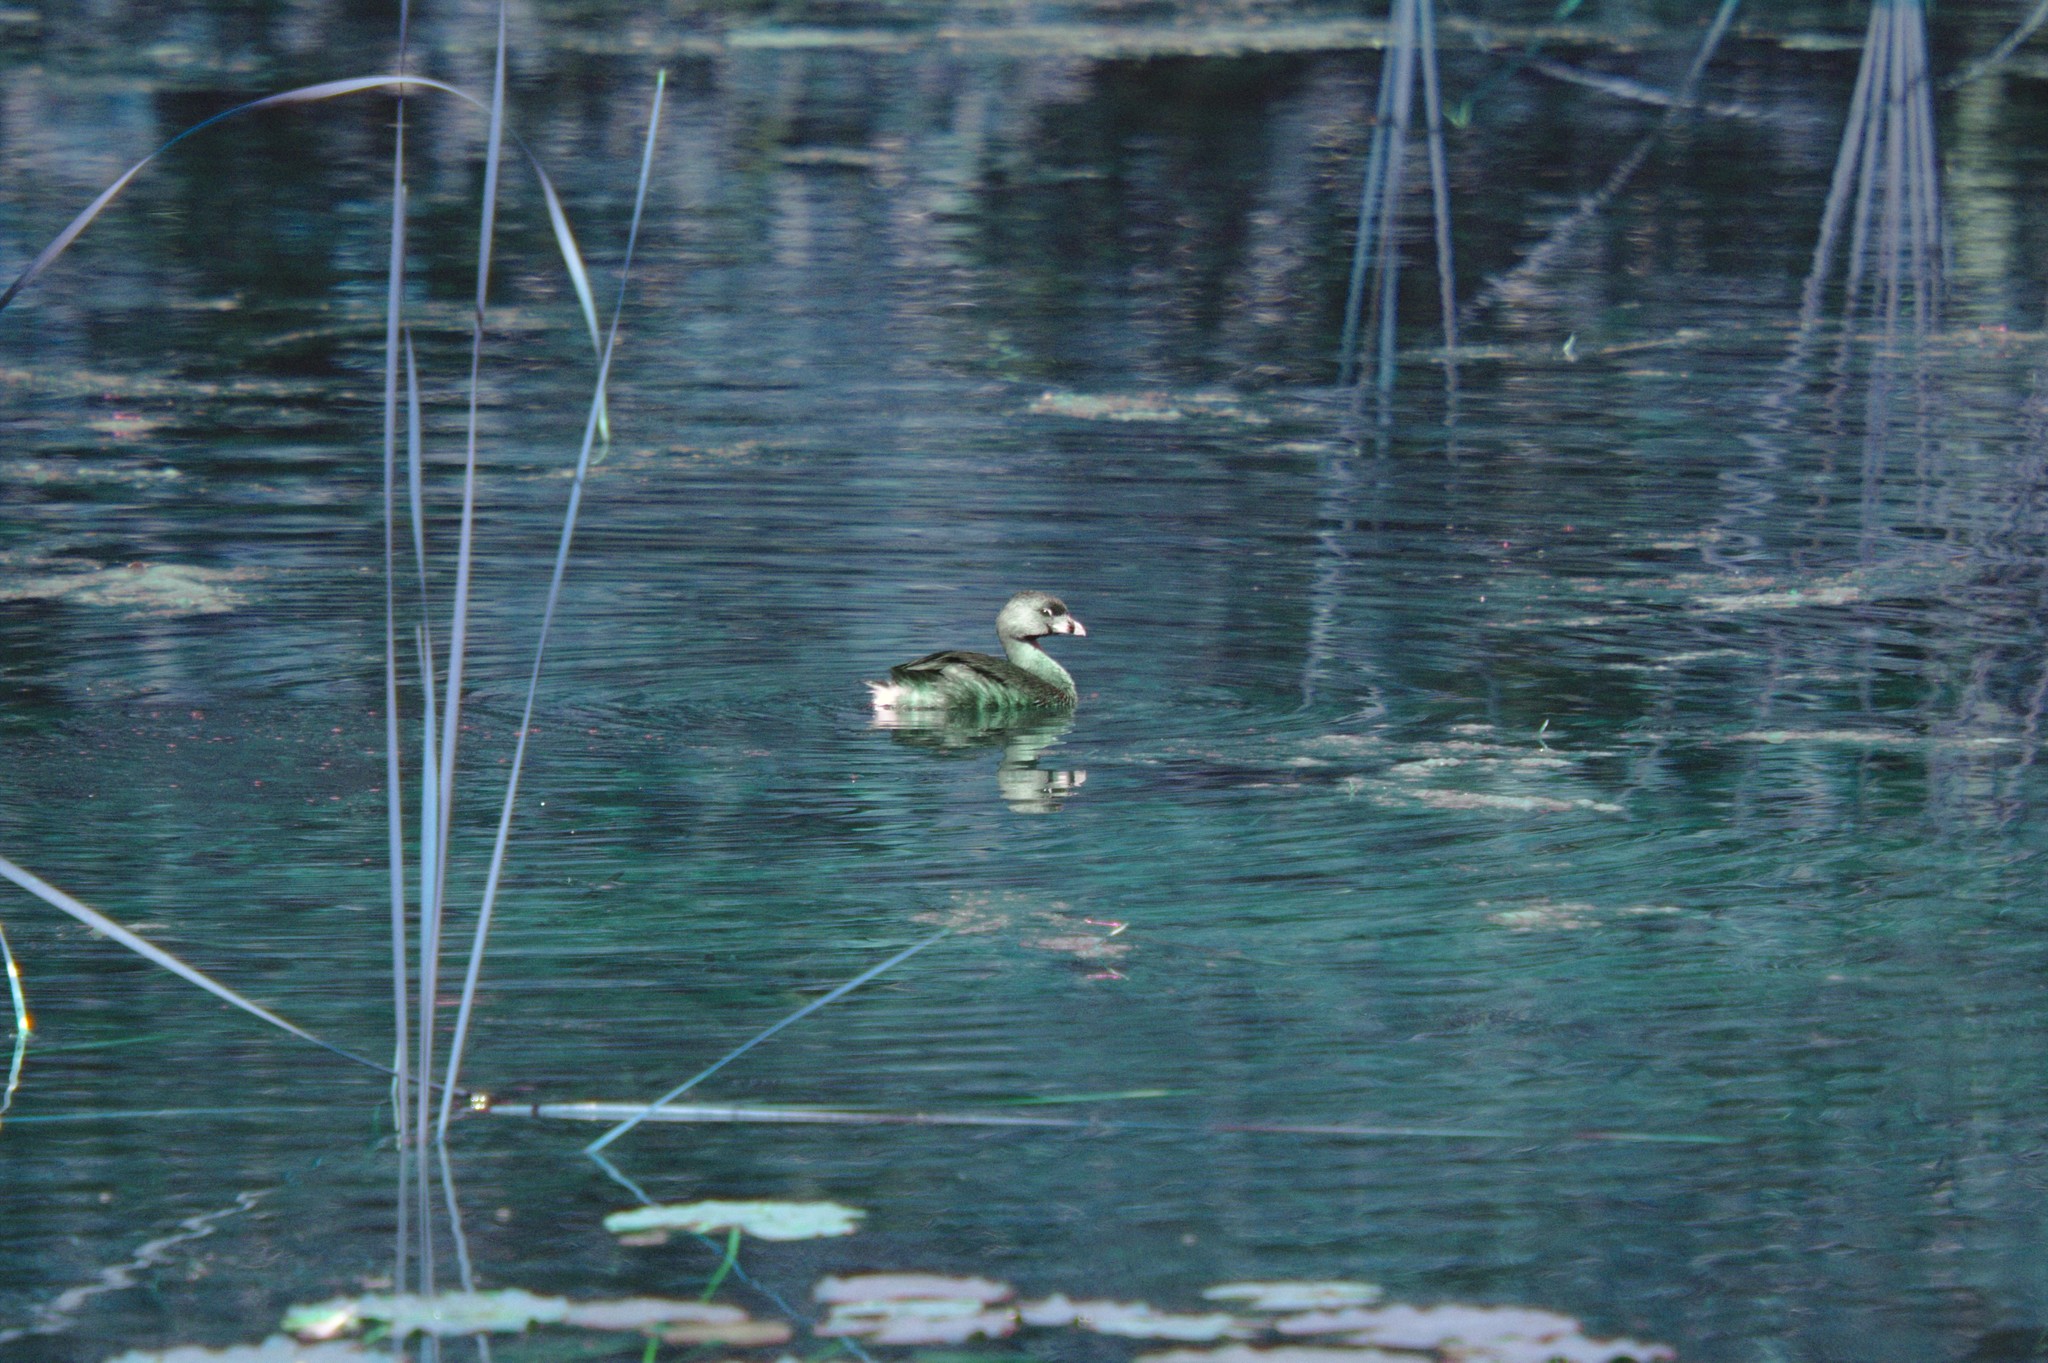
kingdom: Animalia
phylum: Chordata
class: Aves
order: Podicipediformes
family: Podicipedidae
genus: Podilymbus
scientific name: Podilymbus podiceps
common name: Pied-billed grebe
